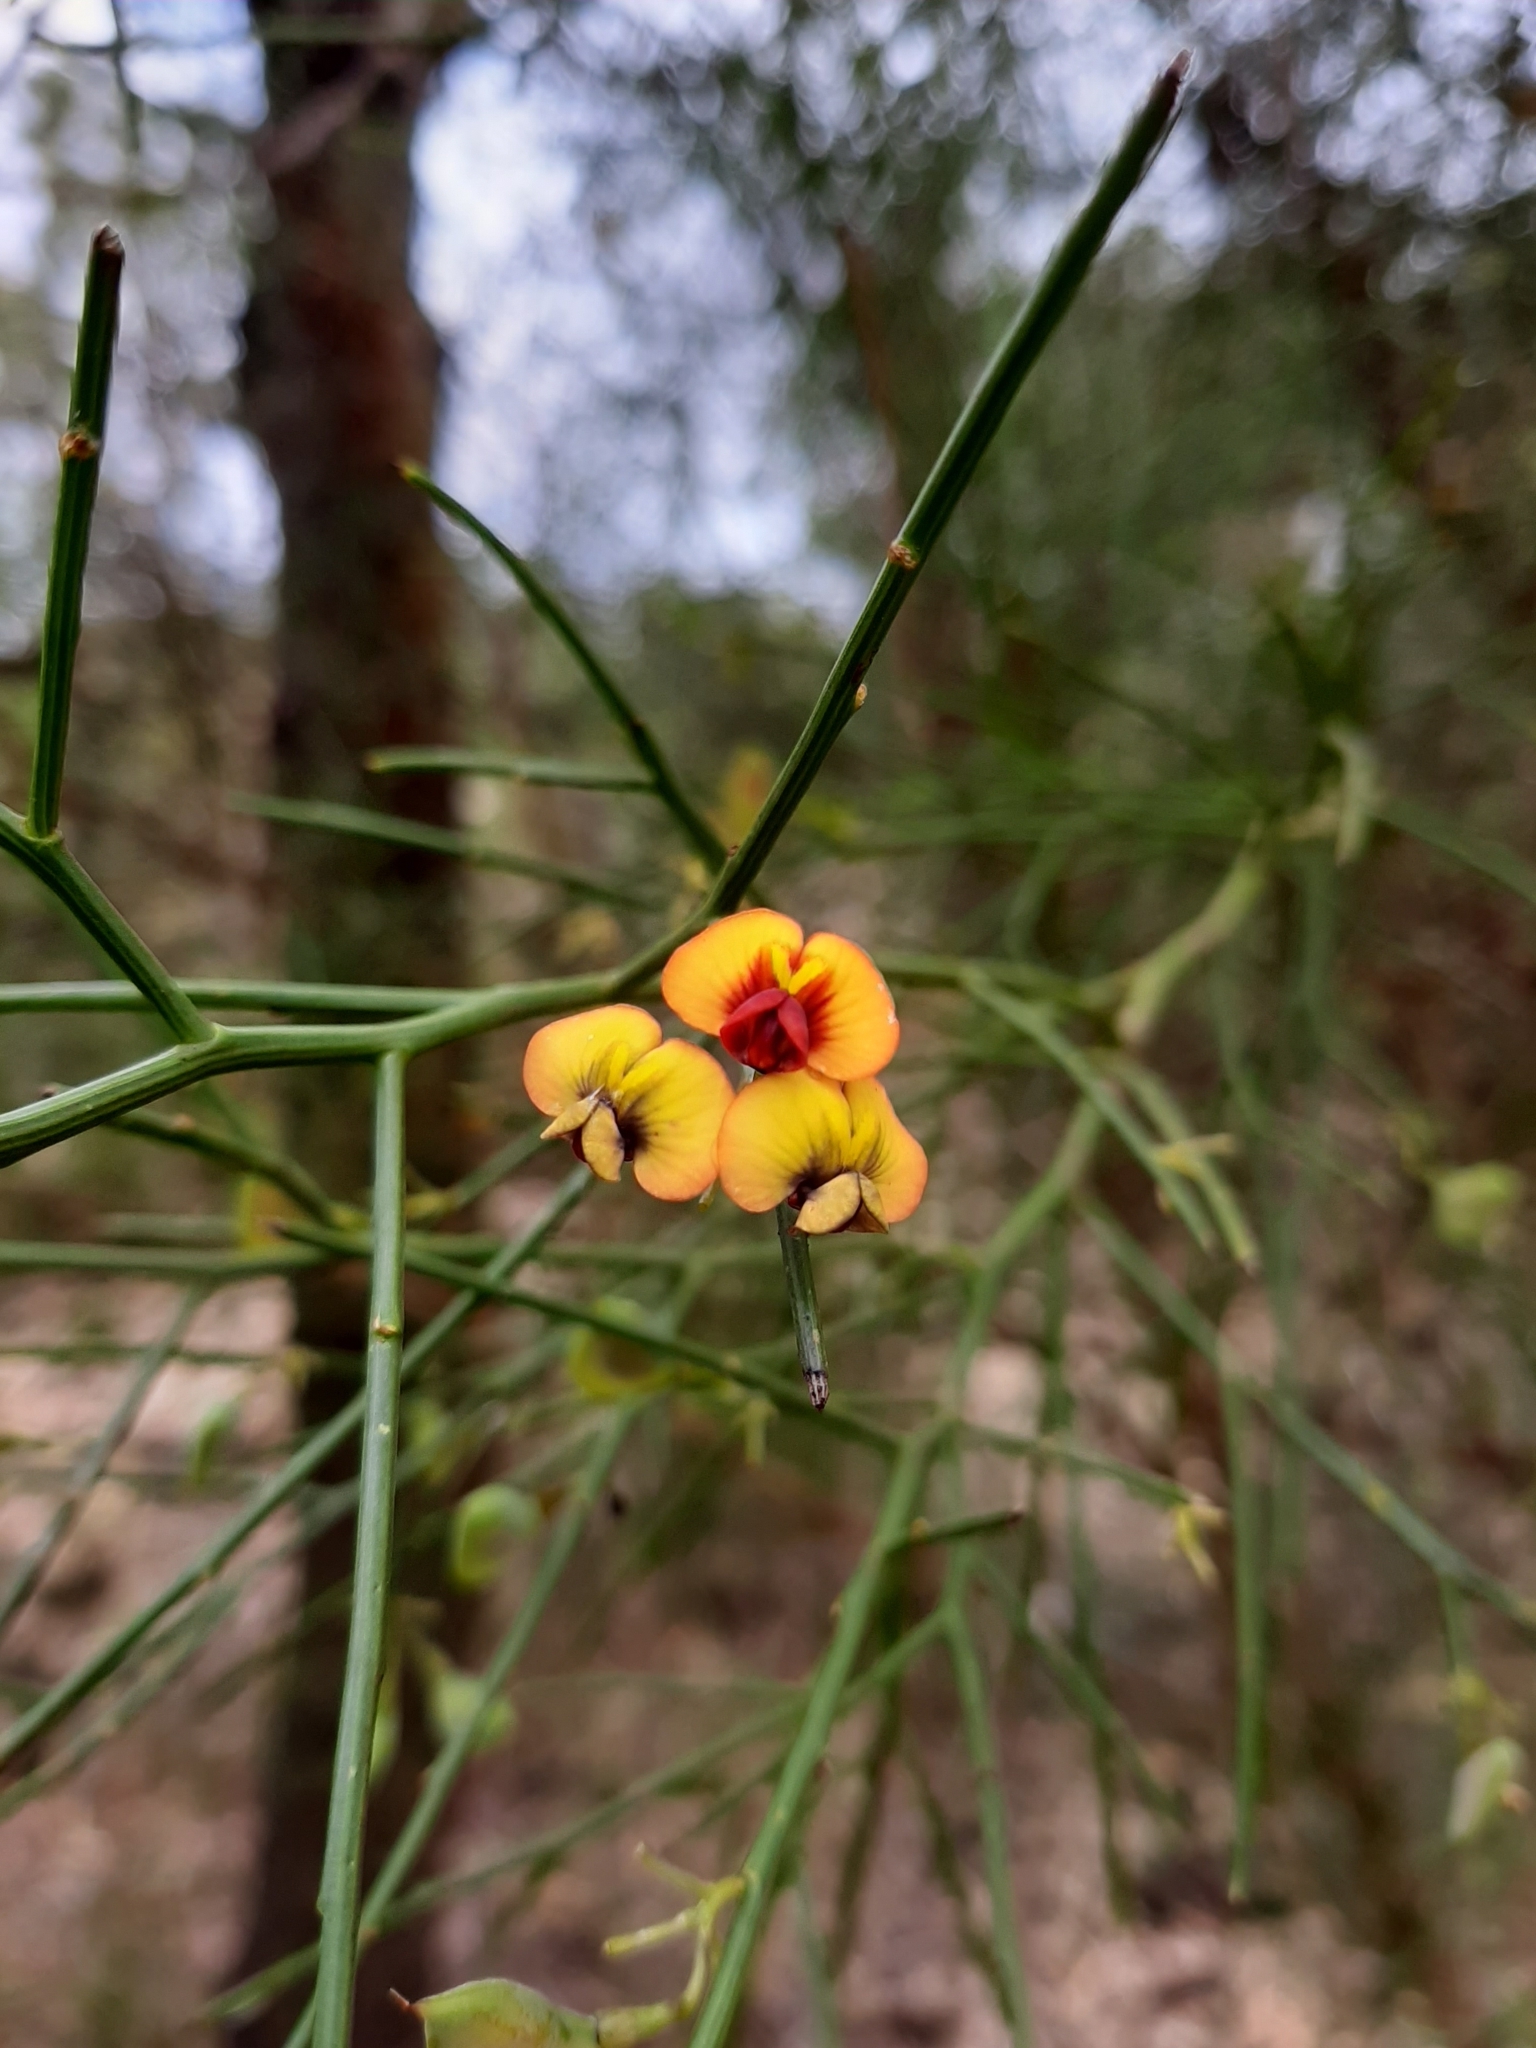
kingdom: Plantae
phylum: Tracheophyta
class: Magnoliopsida
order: Fabales
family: Fabaceae
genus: Daviesia
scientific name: Daviesia divaricata
